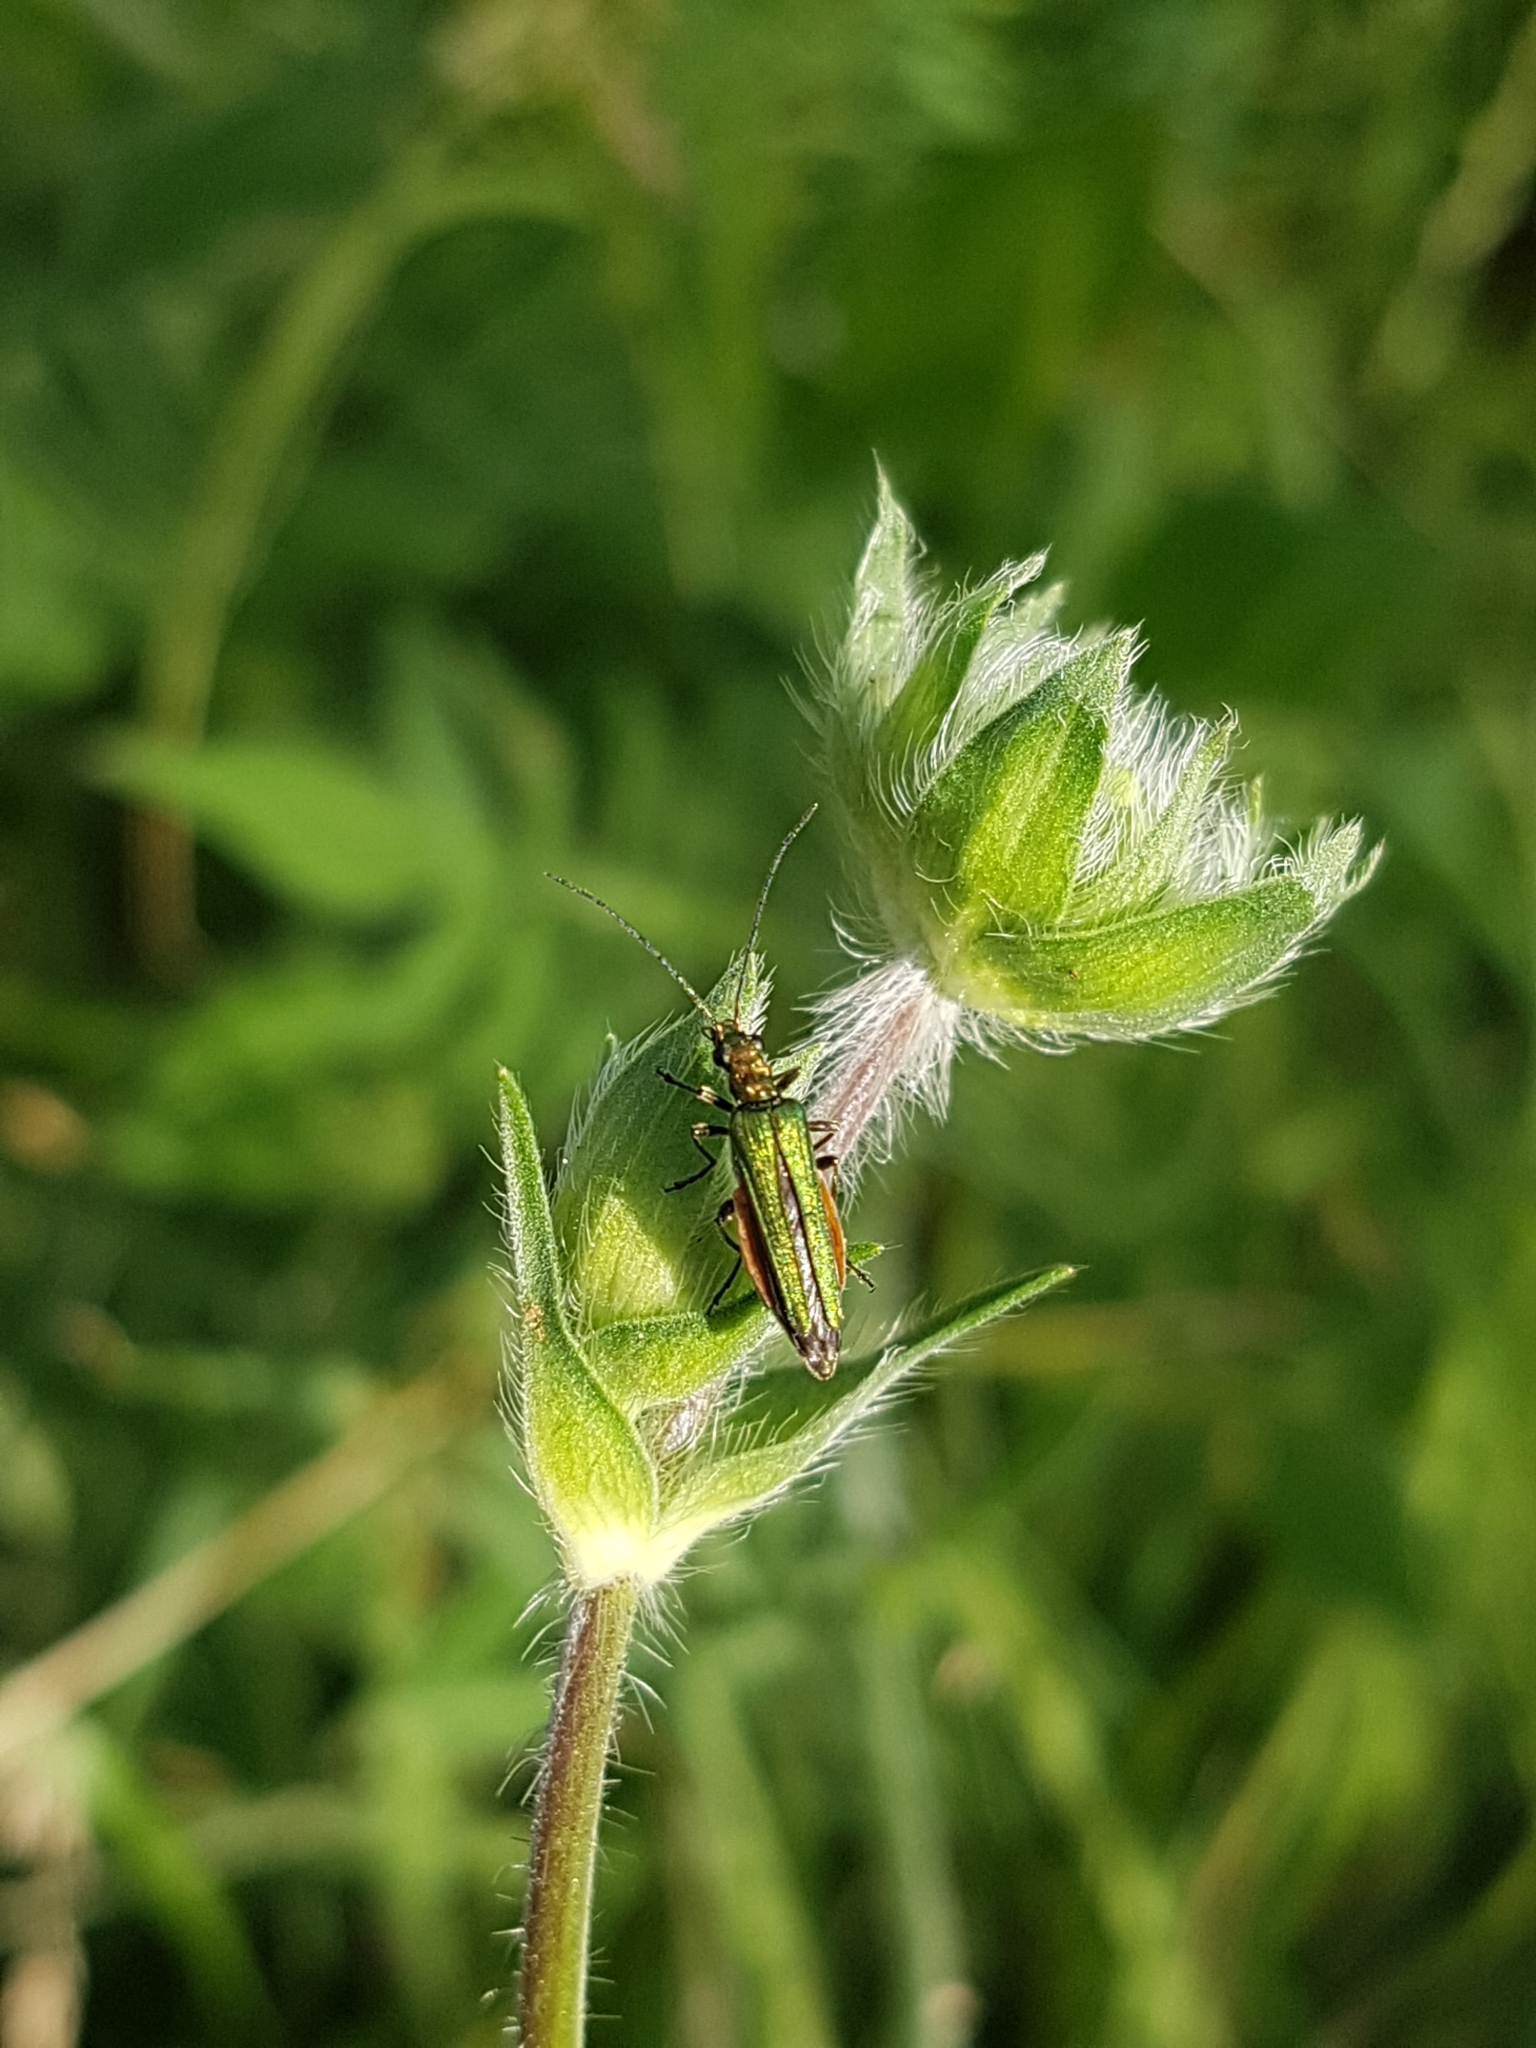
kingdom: Animalia
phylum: Arthropoda
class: Insecta
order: Coleoptera
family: Oedemeridae
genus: Oedemera
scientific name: Oedemera nobilis
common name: Swollen-thighed beetle
